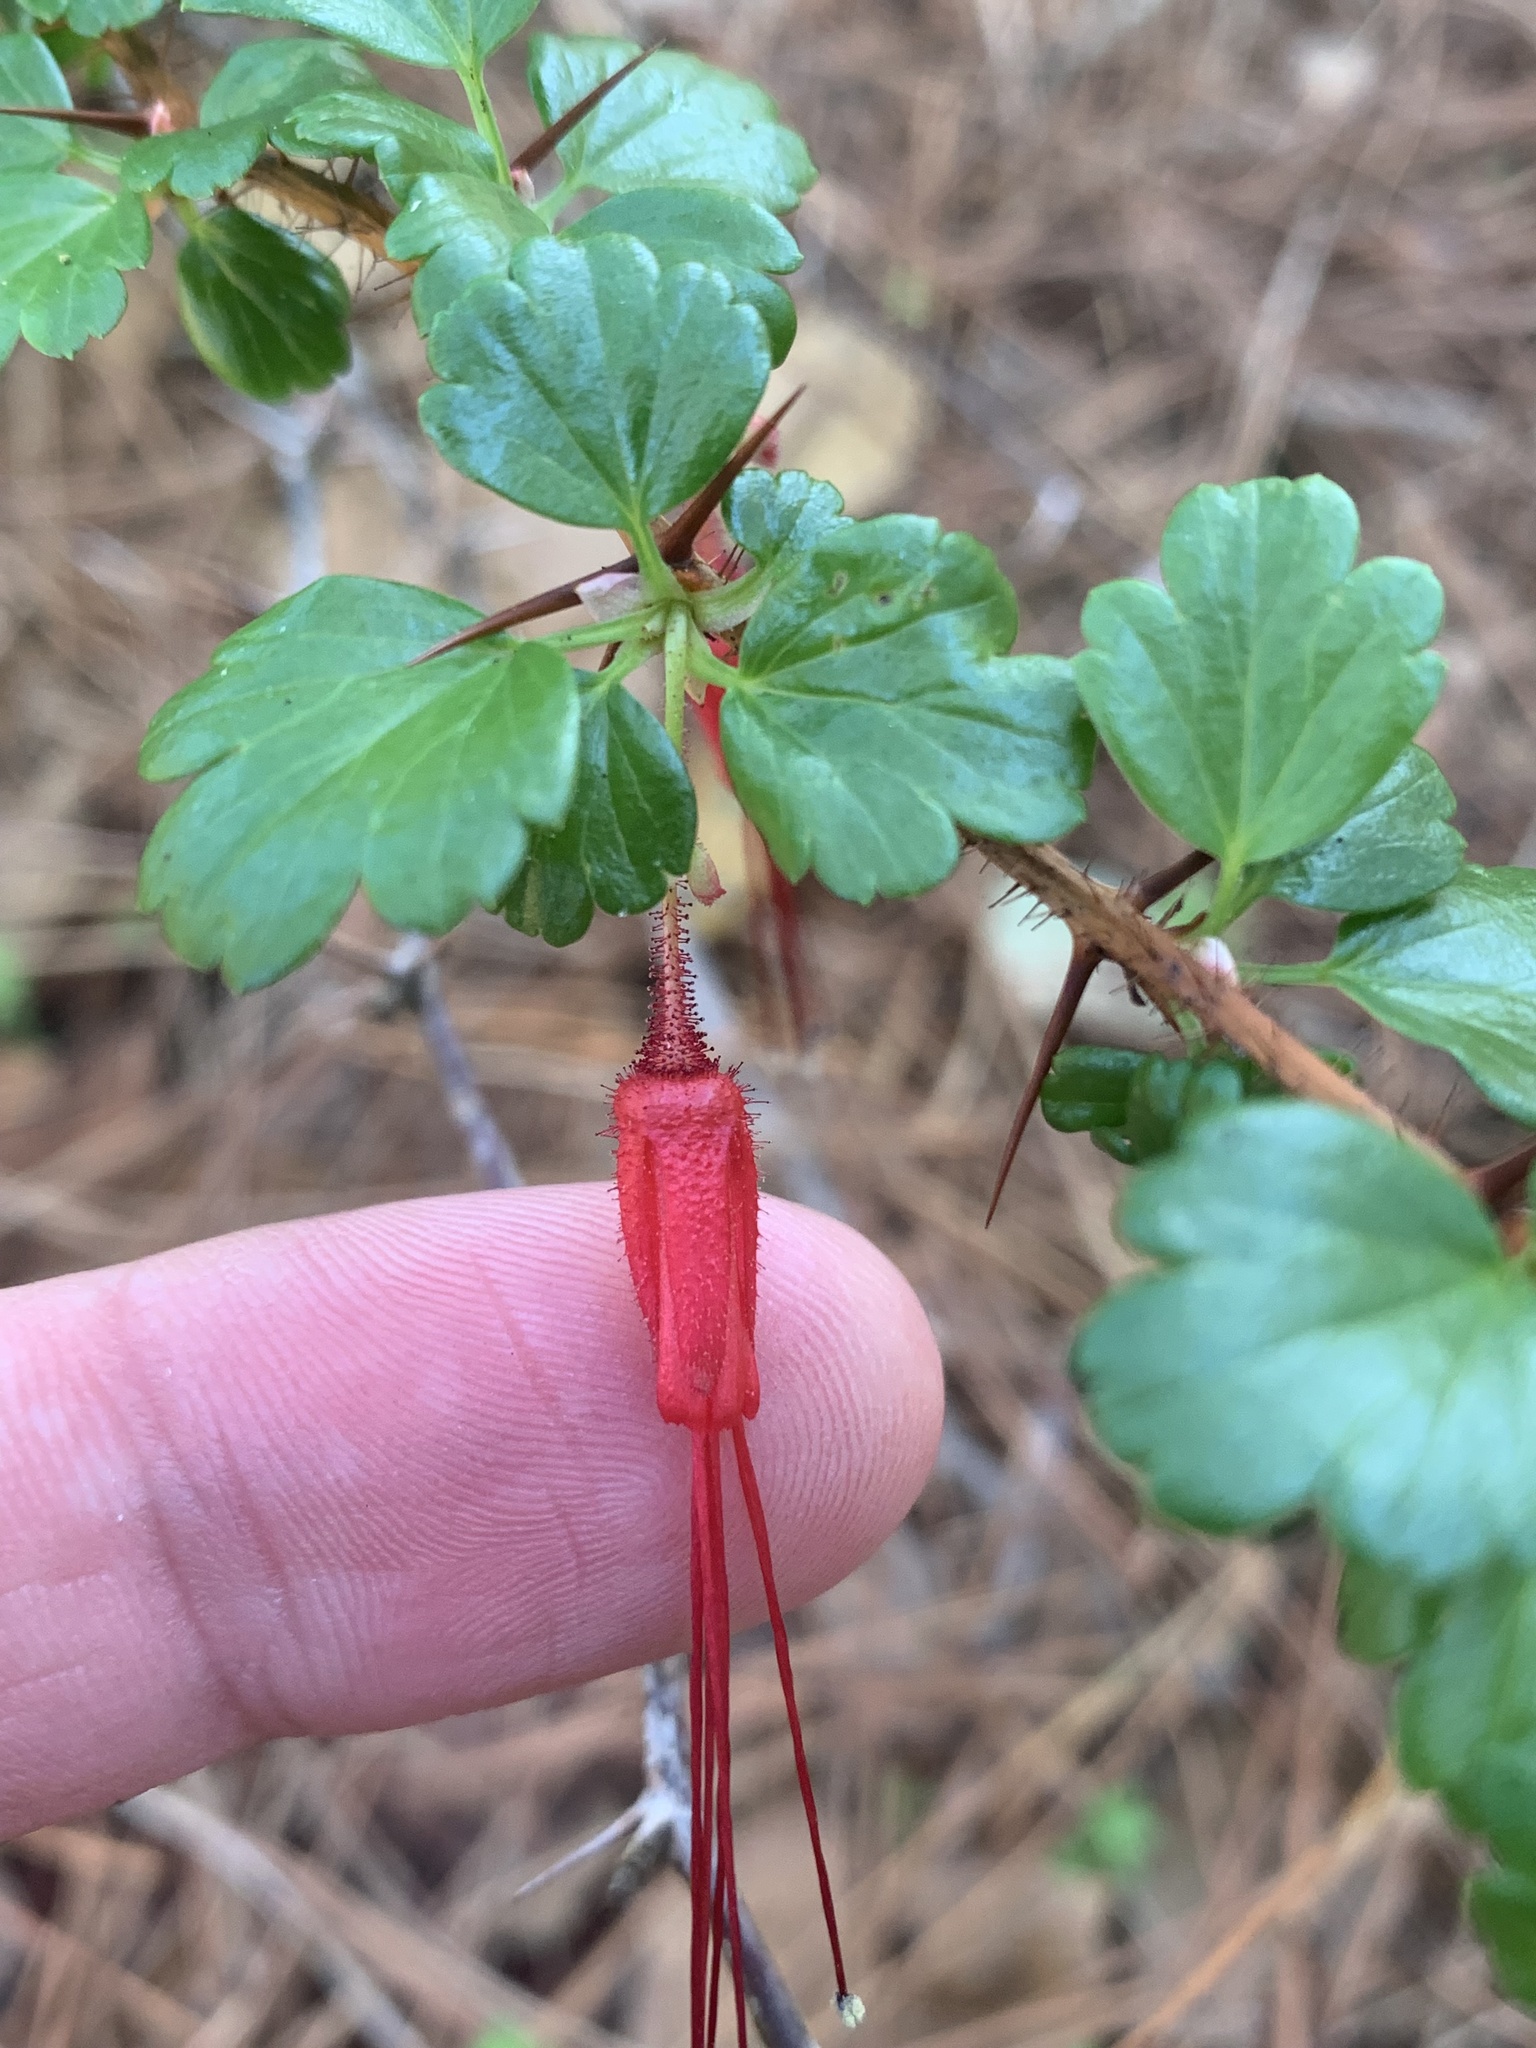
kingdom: Plantae
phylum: Tracheophyta
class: Magnoliopsida
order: Saxifragales
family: Grossulariaceae
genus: Ribes
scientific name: Ribes speciosum
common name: Fuchsia-flower gooseberry
